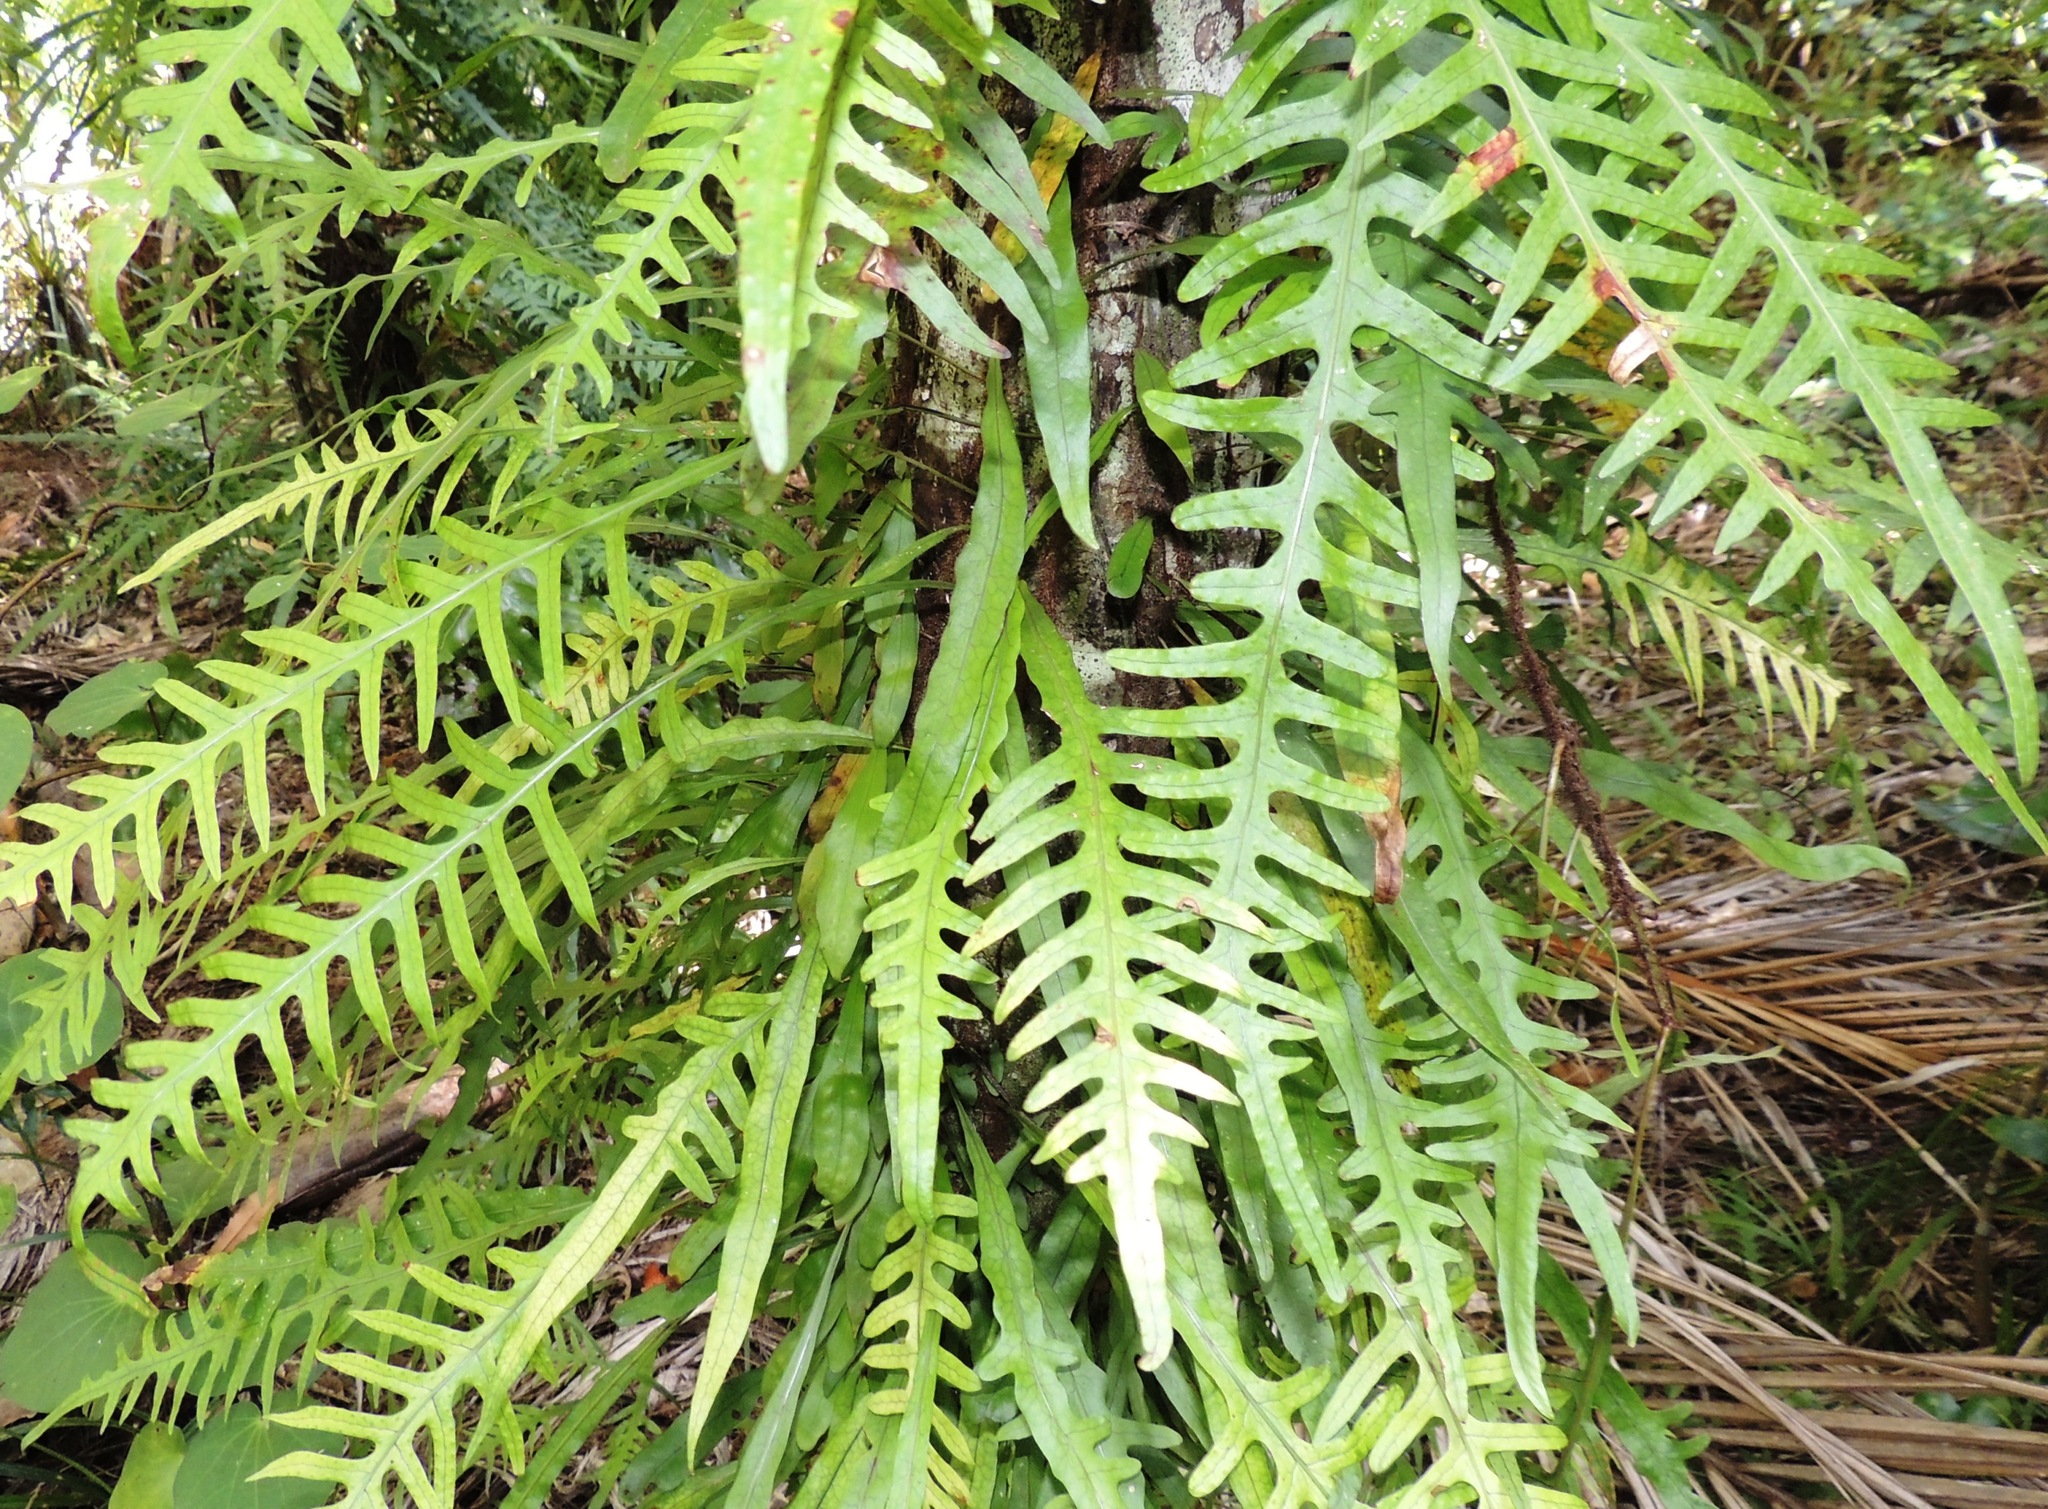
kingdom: Plantae
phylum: Tracheophyta
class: Polypodiopsida
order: Polypodiales
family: Polypodiaceae
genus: Lecanopteris
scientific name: Lecanopteris scandens
